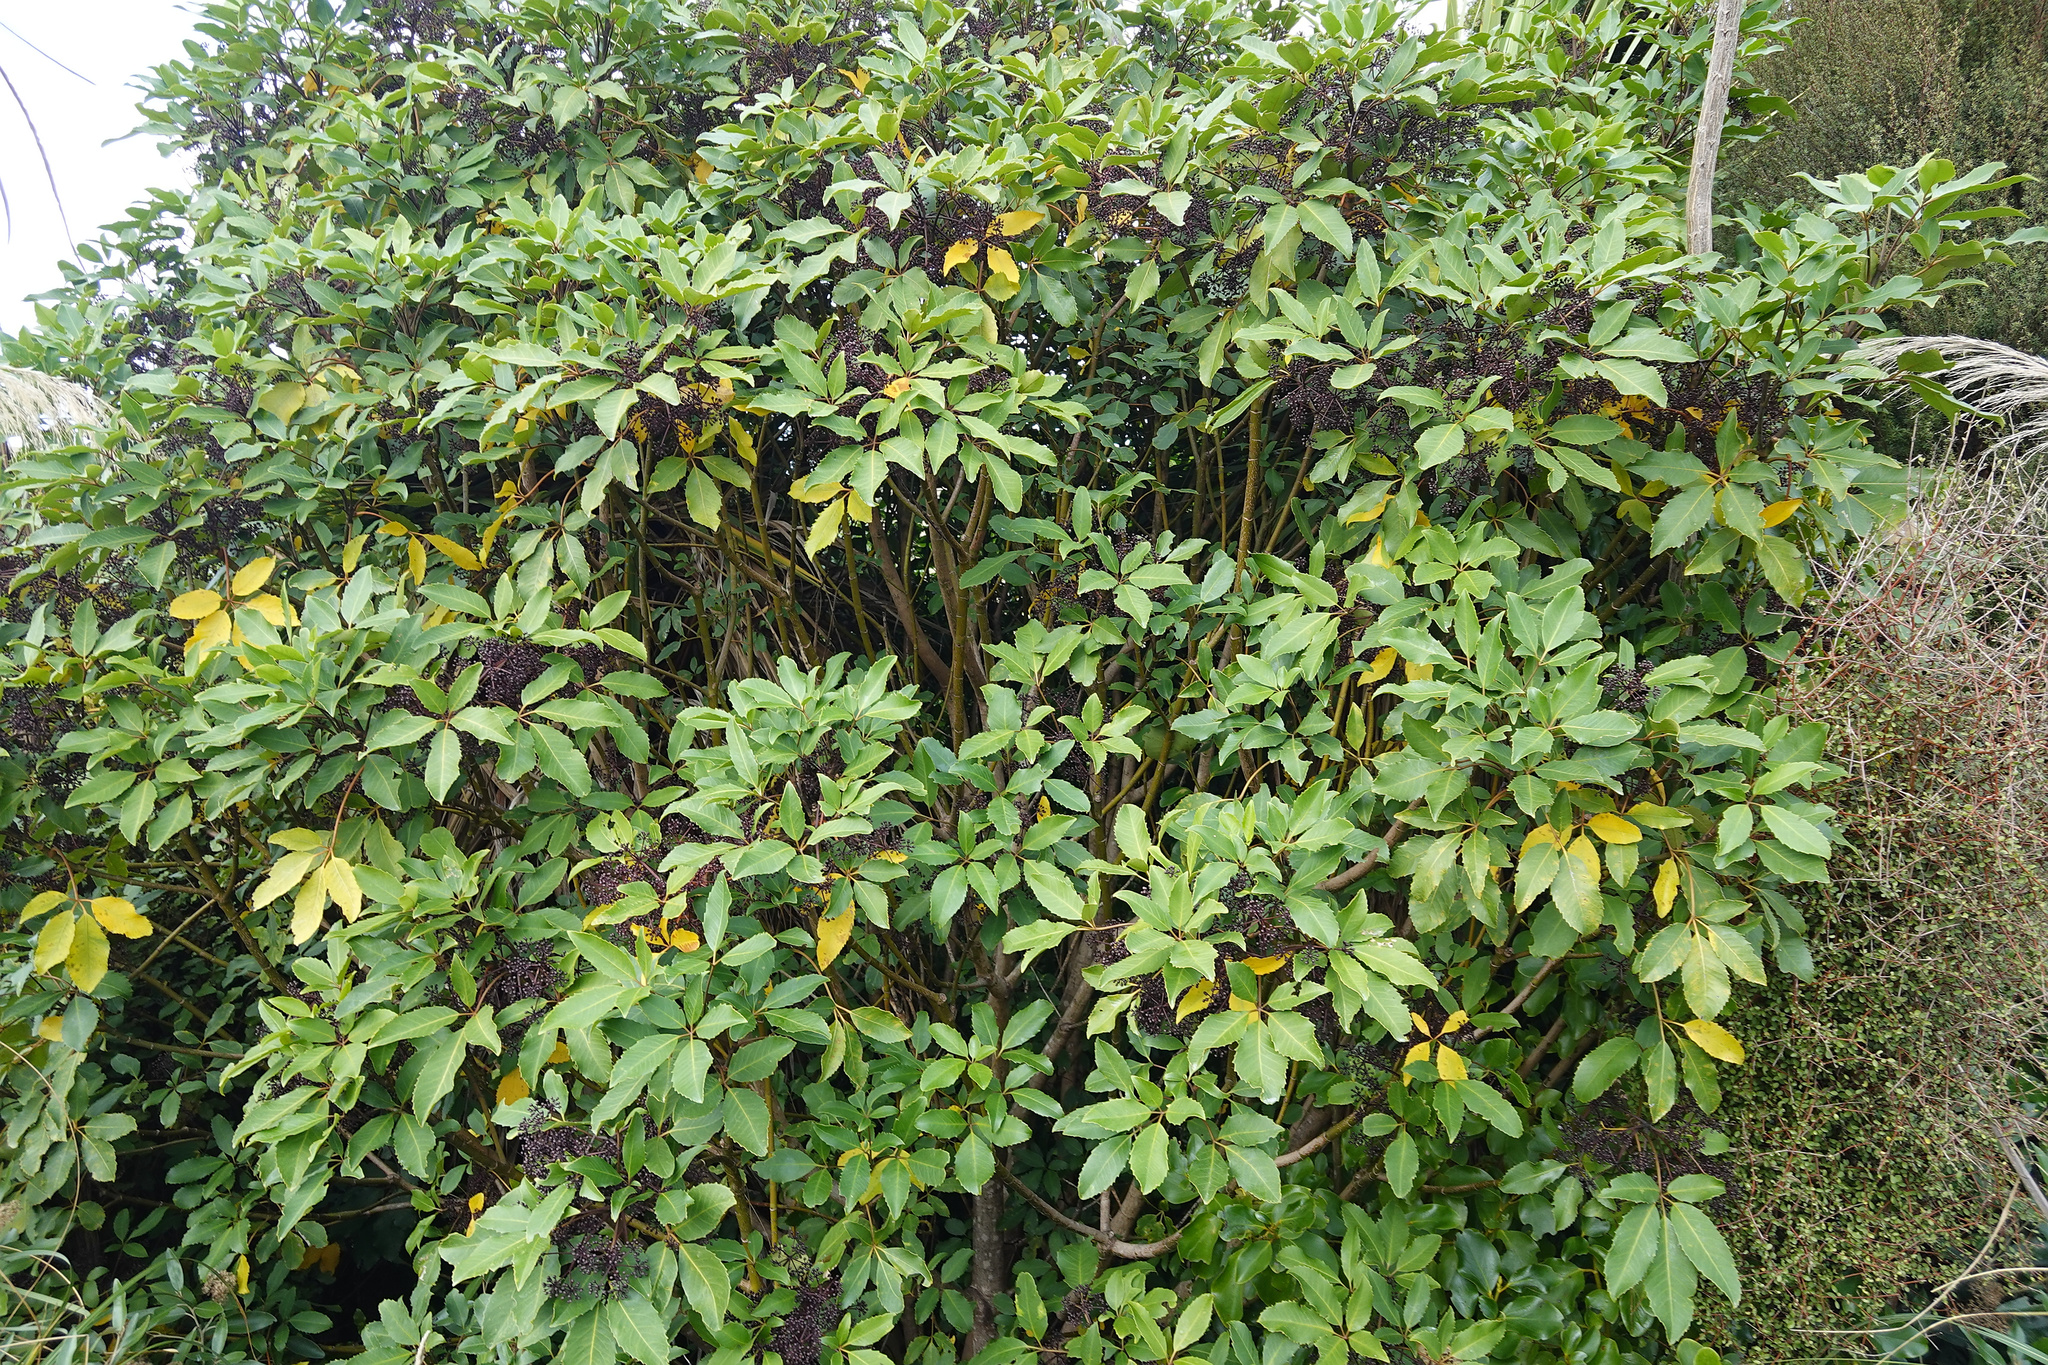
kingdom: Plantae
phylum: Tracheophyta
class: Magnoliopsida
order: Apiales
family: Araliaceae
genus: Neopanax
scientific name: Neopanax arboreus
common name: Five-fingers
